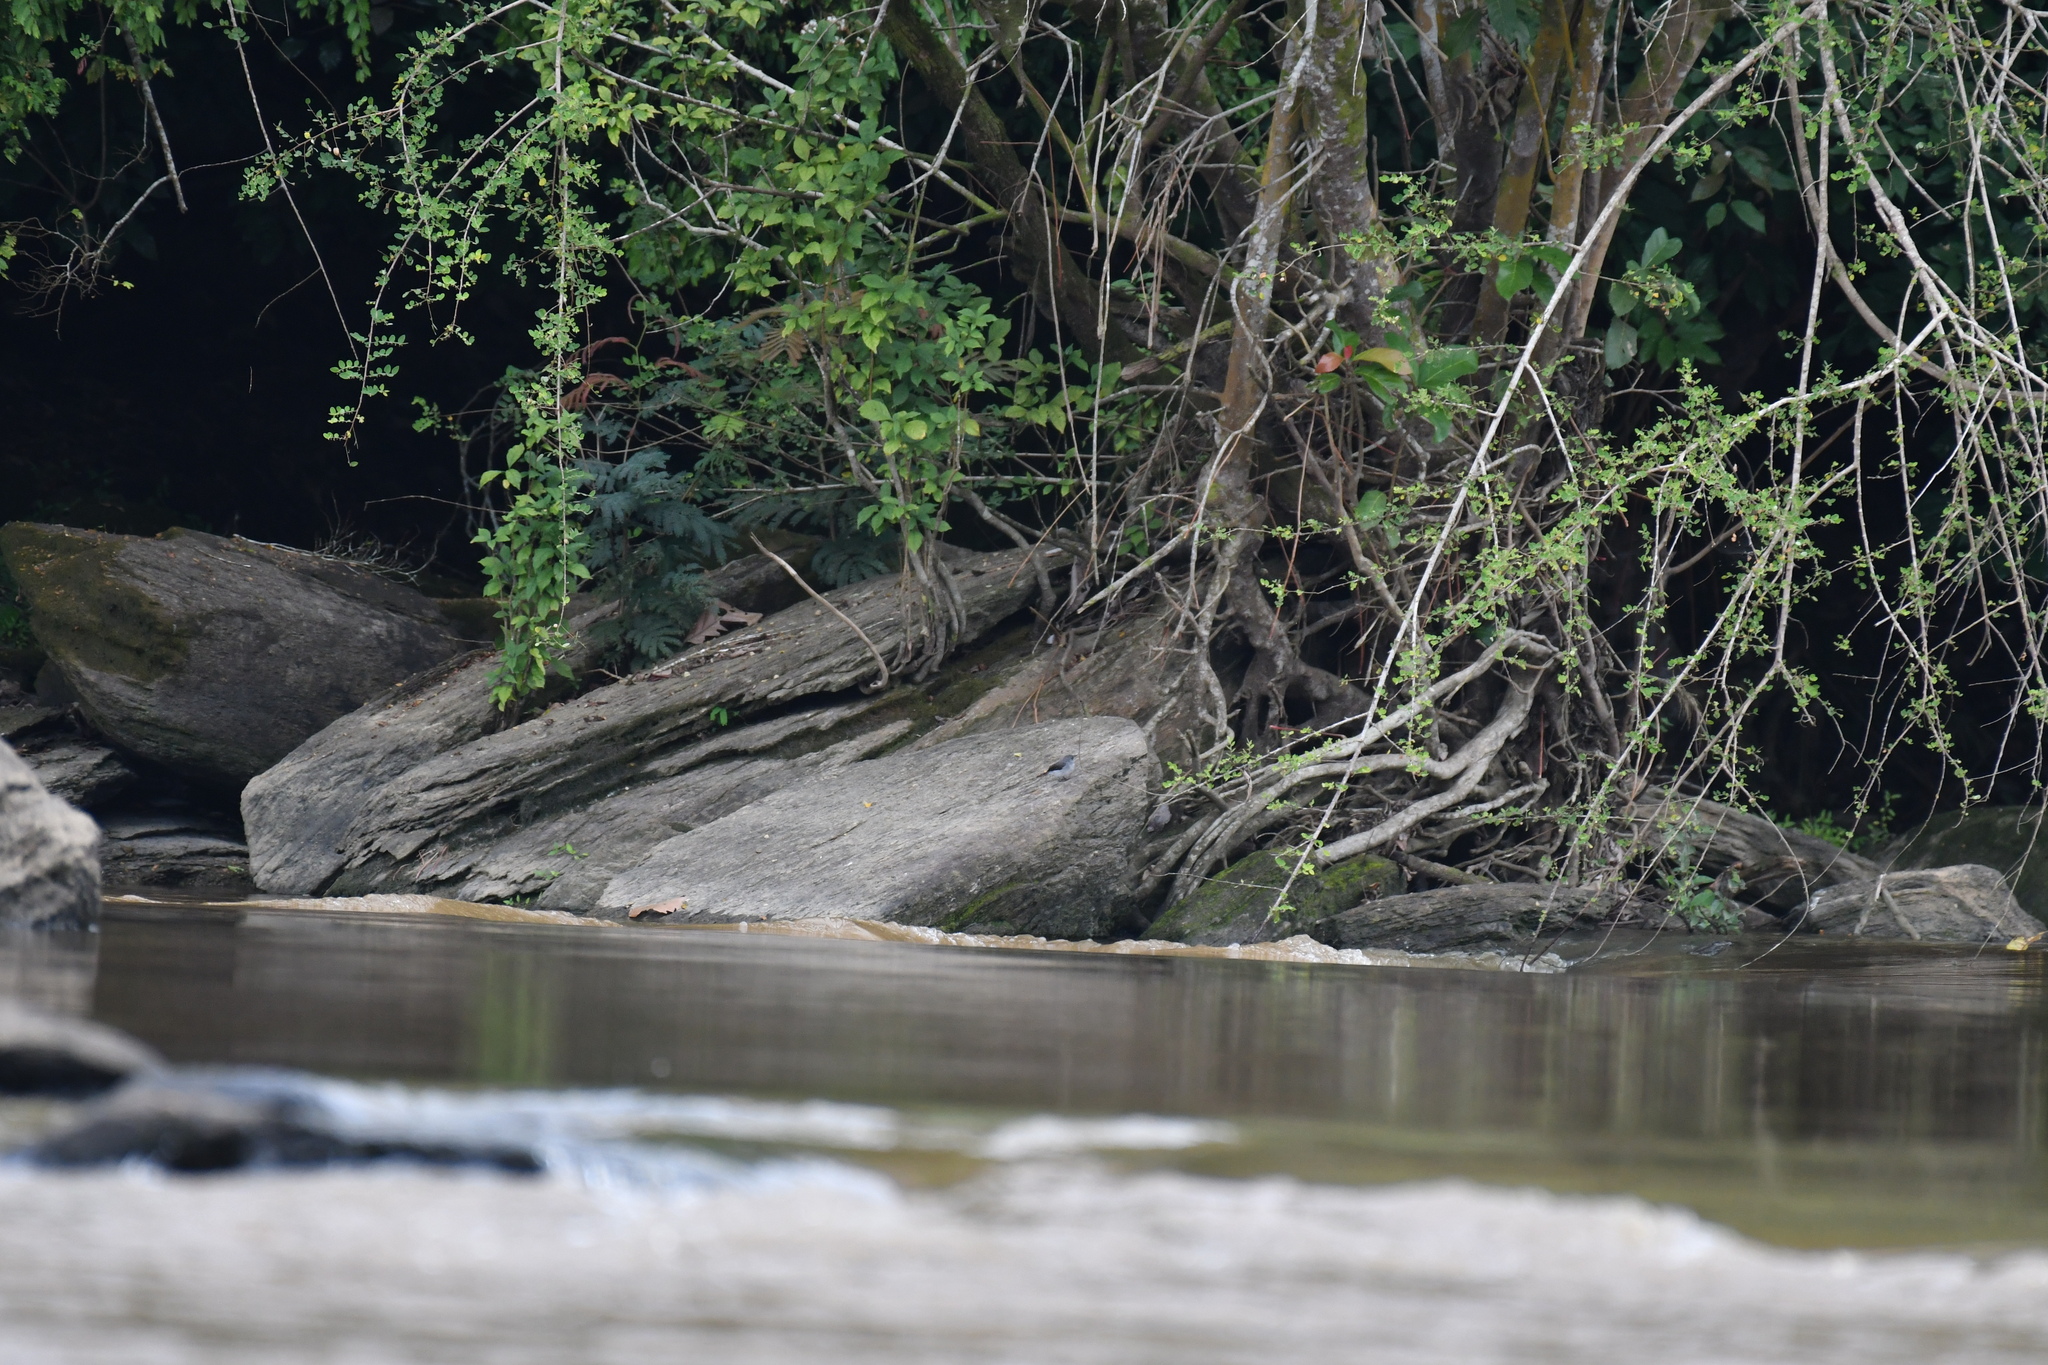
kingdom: Animalia
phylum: Chordata
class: Aves
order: Passeriformes
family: Muscicapidae
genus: Muscicapa
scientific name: Muscicapa cassini
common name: Cassin's flycatcher
